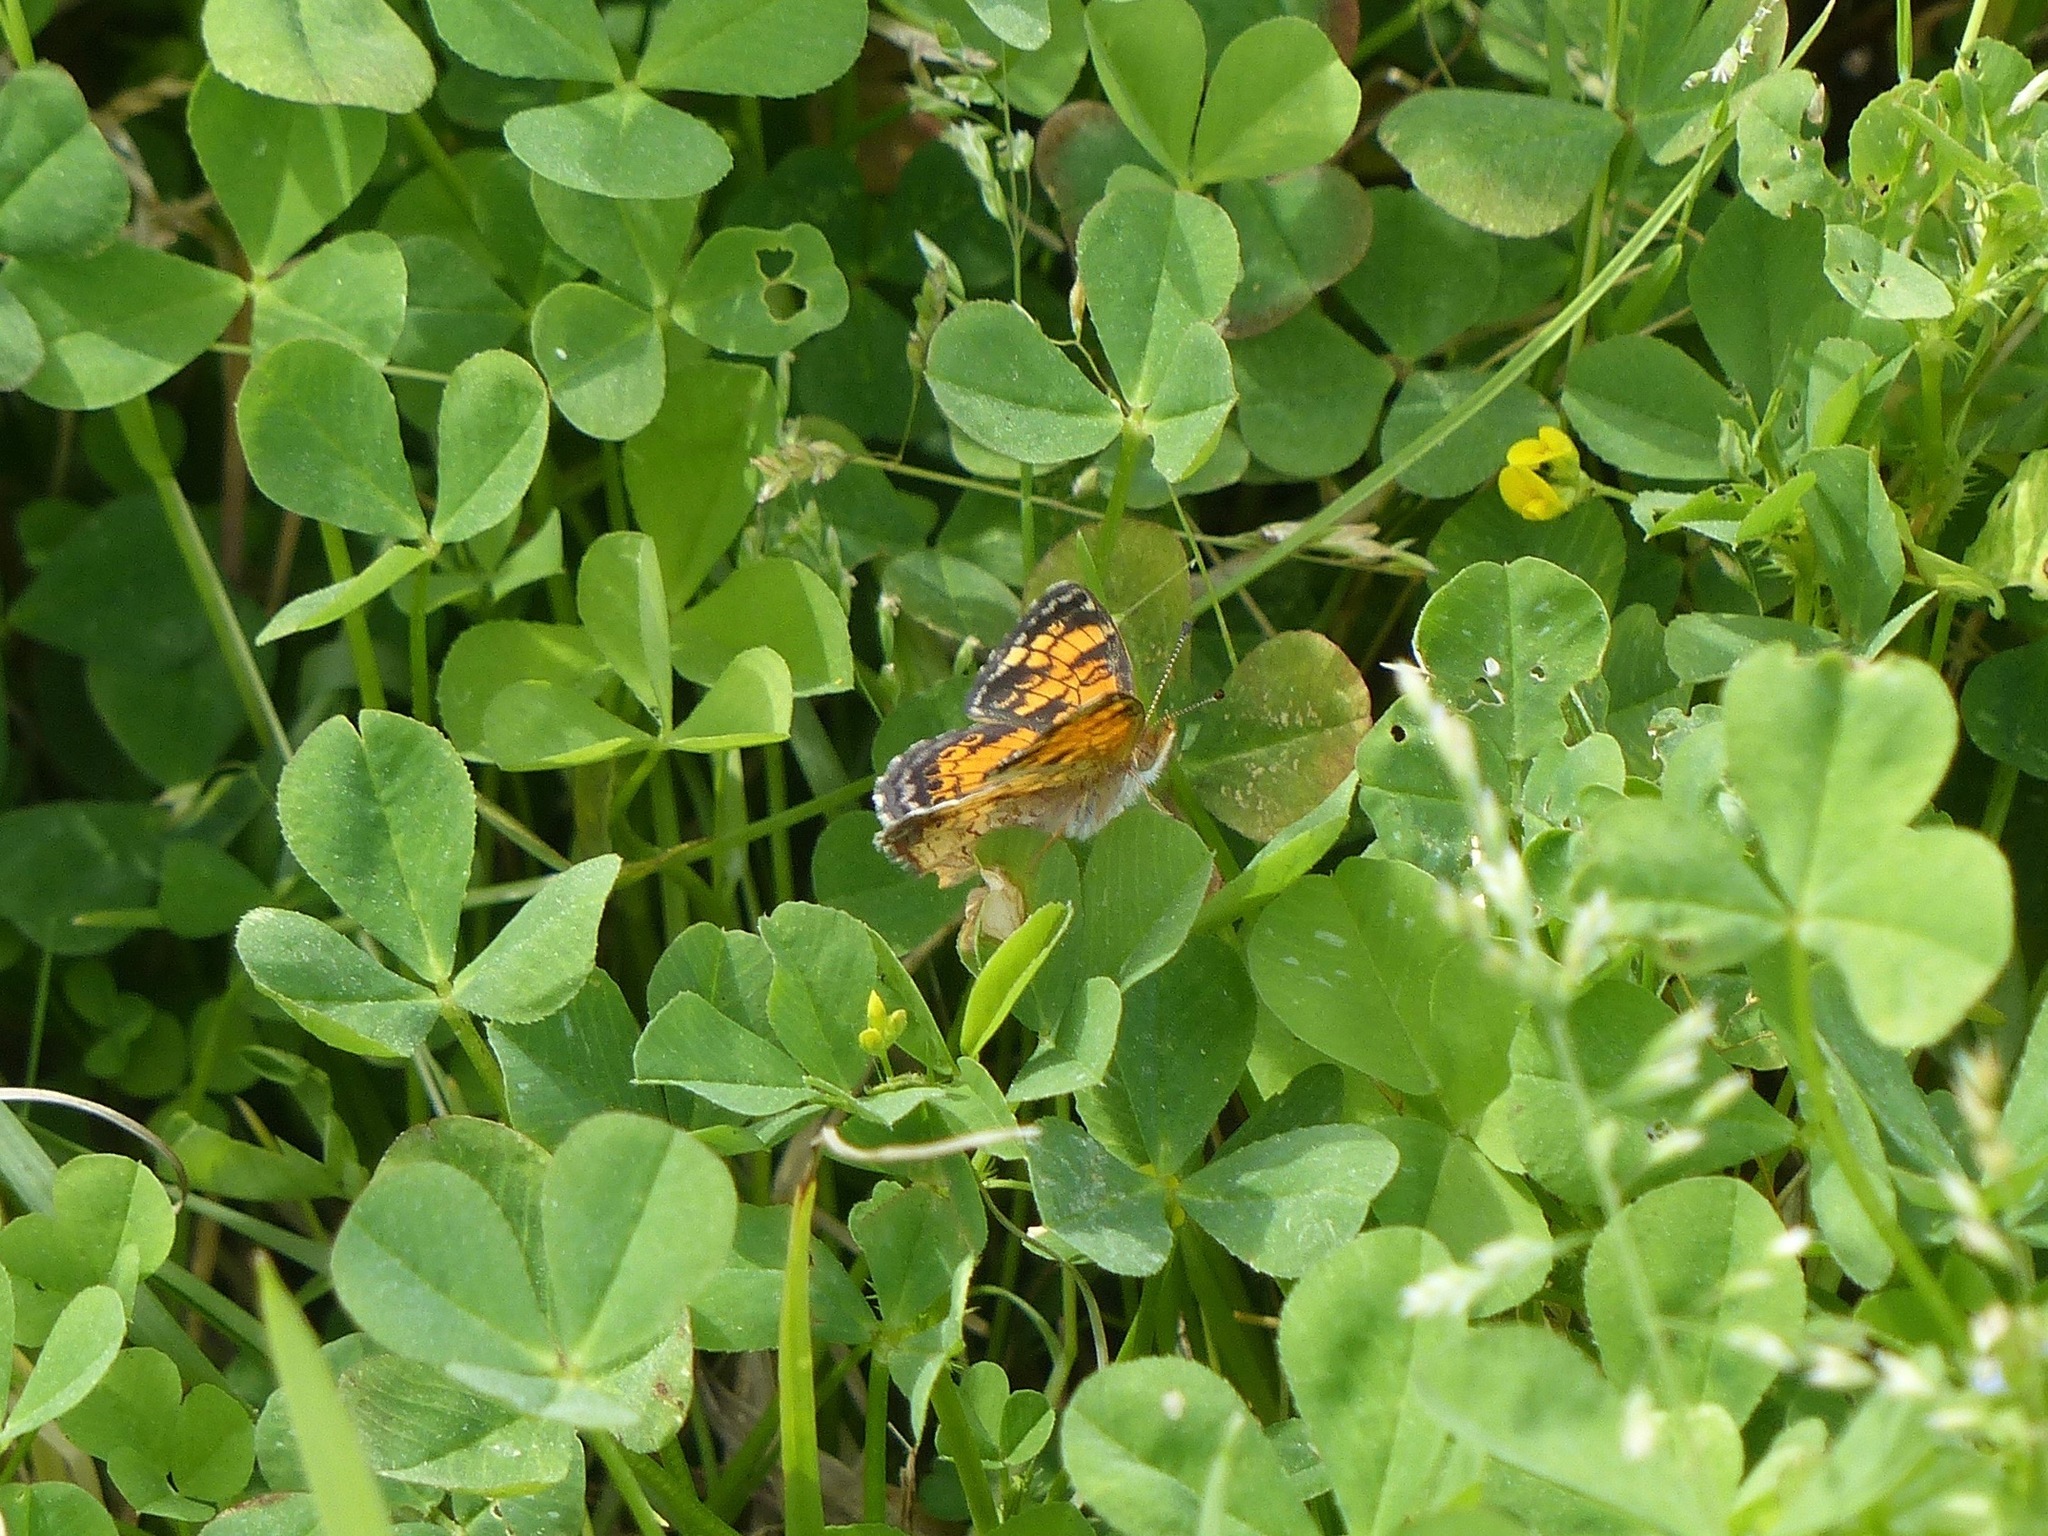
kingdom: Animalia
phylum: Arthropoda
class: Insecta
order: Lepidoptera
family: Nymphalidae
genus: Phyciodes
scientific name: Phyciodes tharos
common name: Pearl crescent
